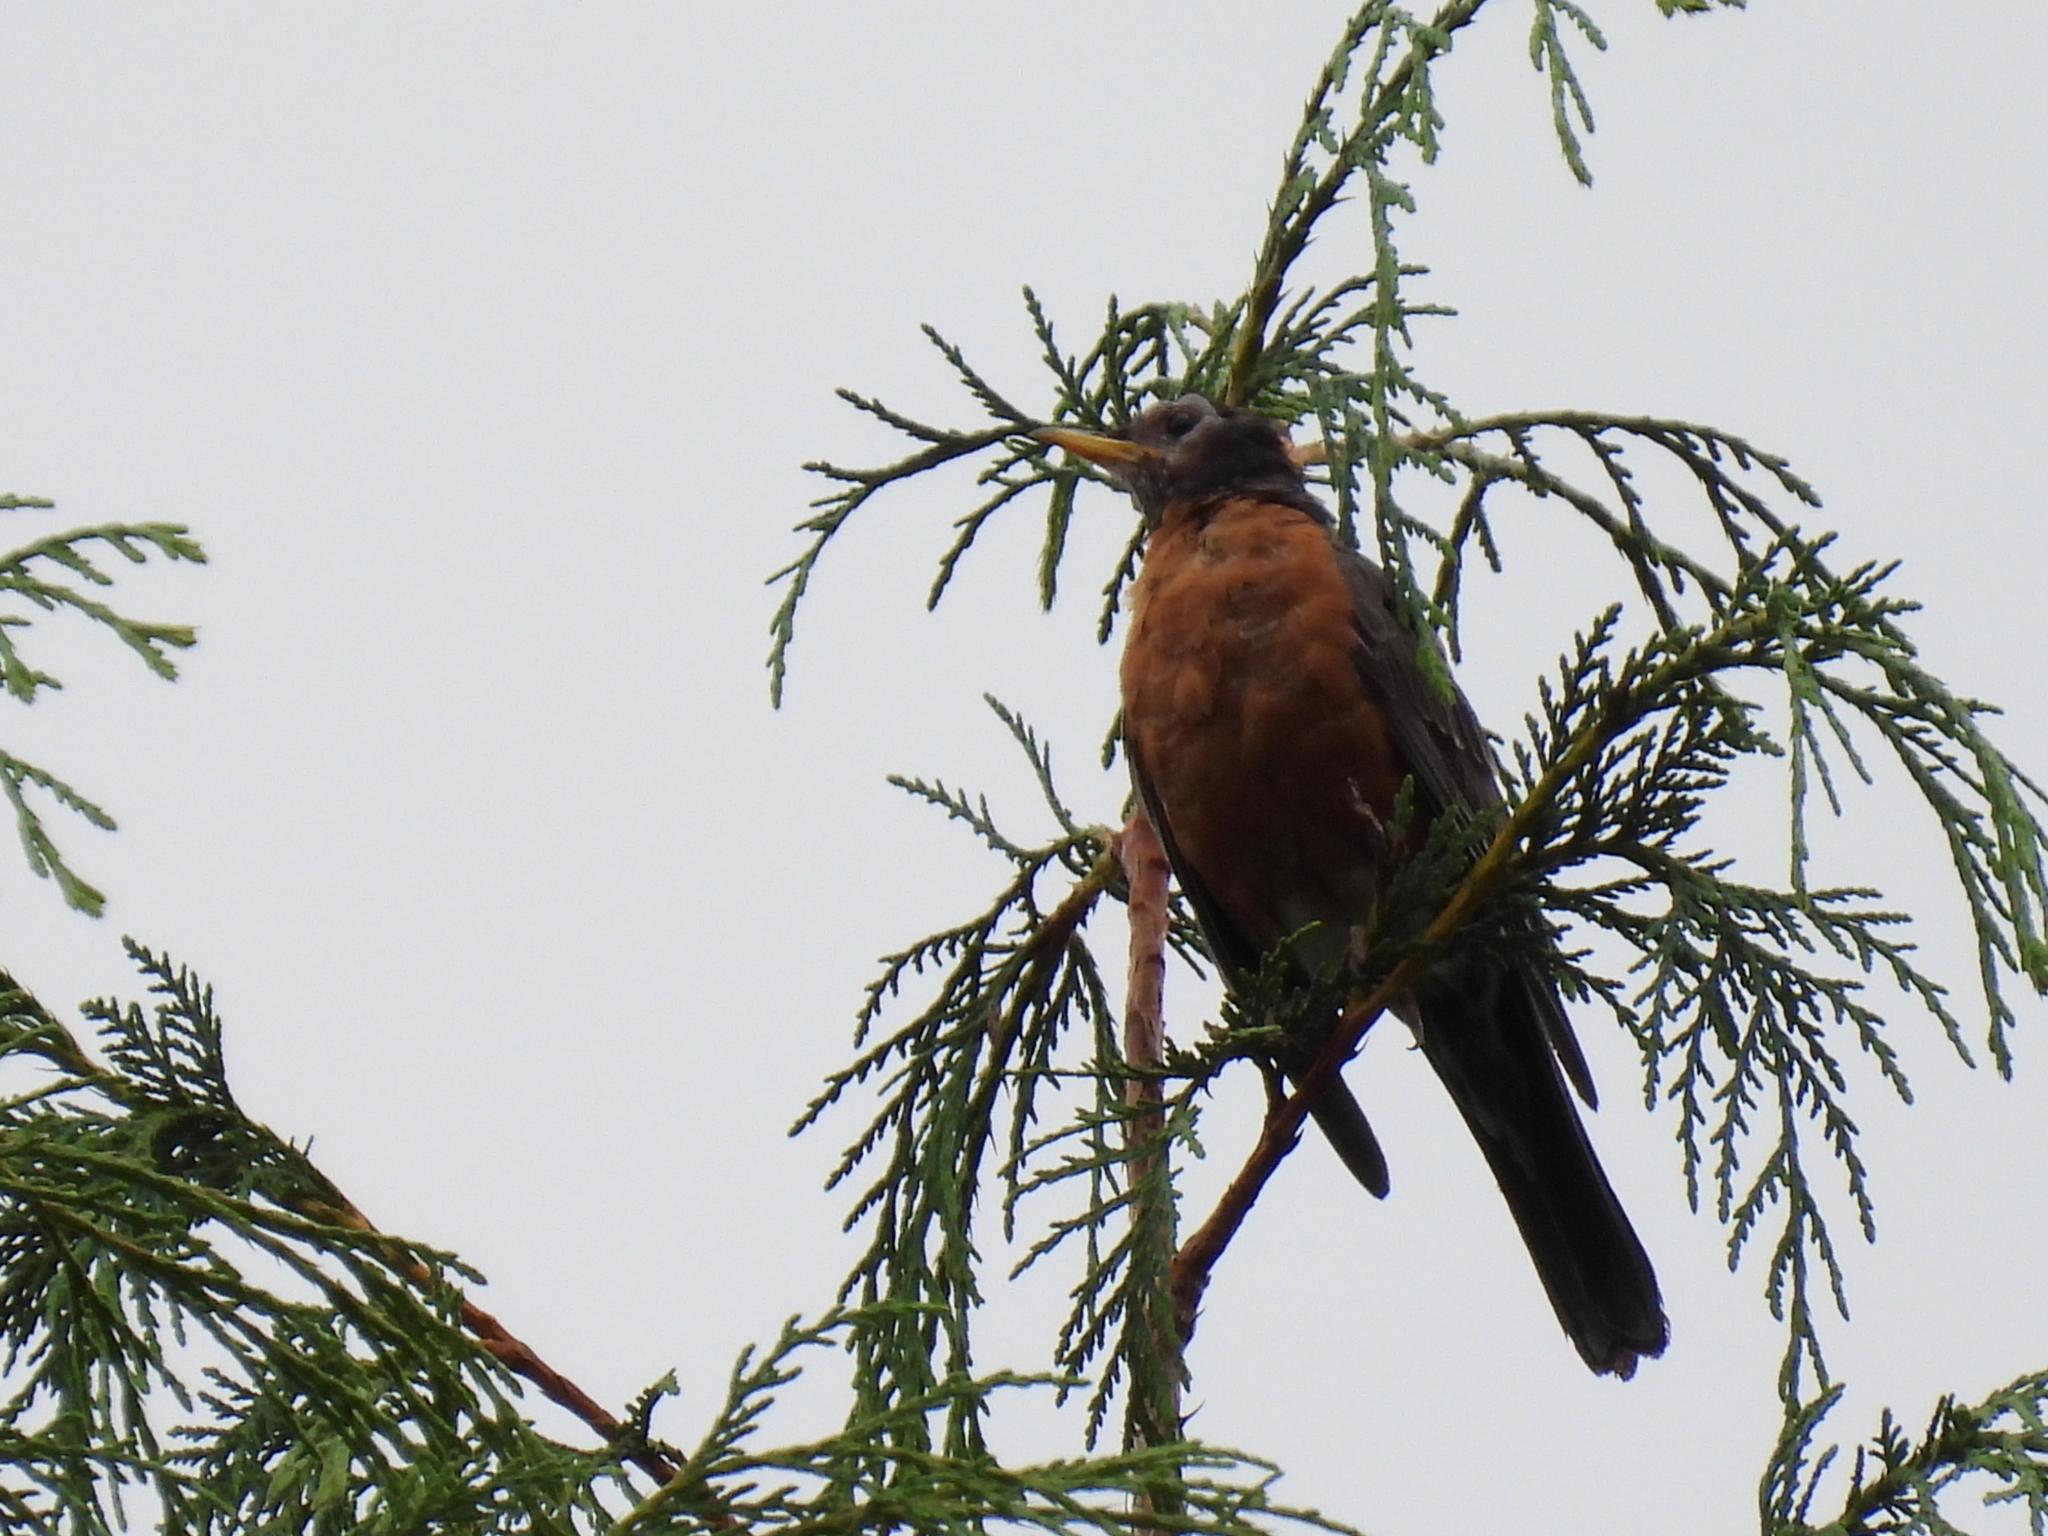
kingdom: Animalia
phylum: Chordata
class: Aves
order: Passeriformes
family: Turdidae
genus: Turdus
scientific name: Turdus migratorius
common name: American robin
